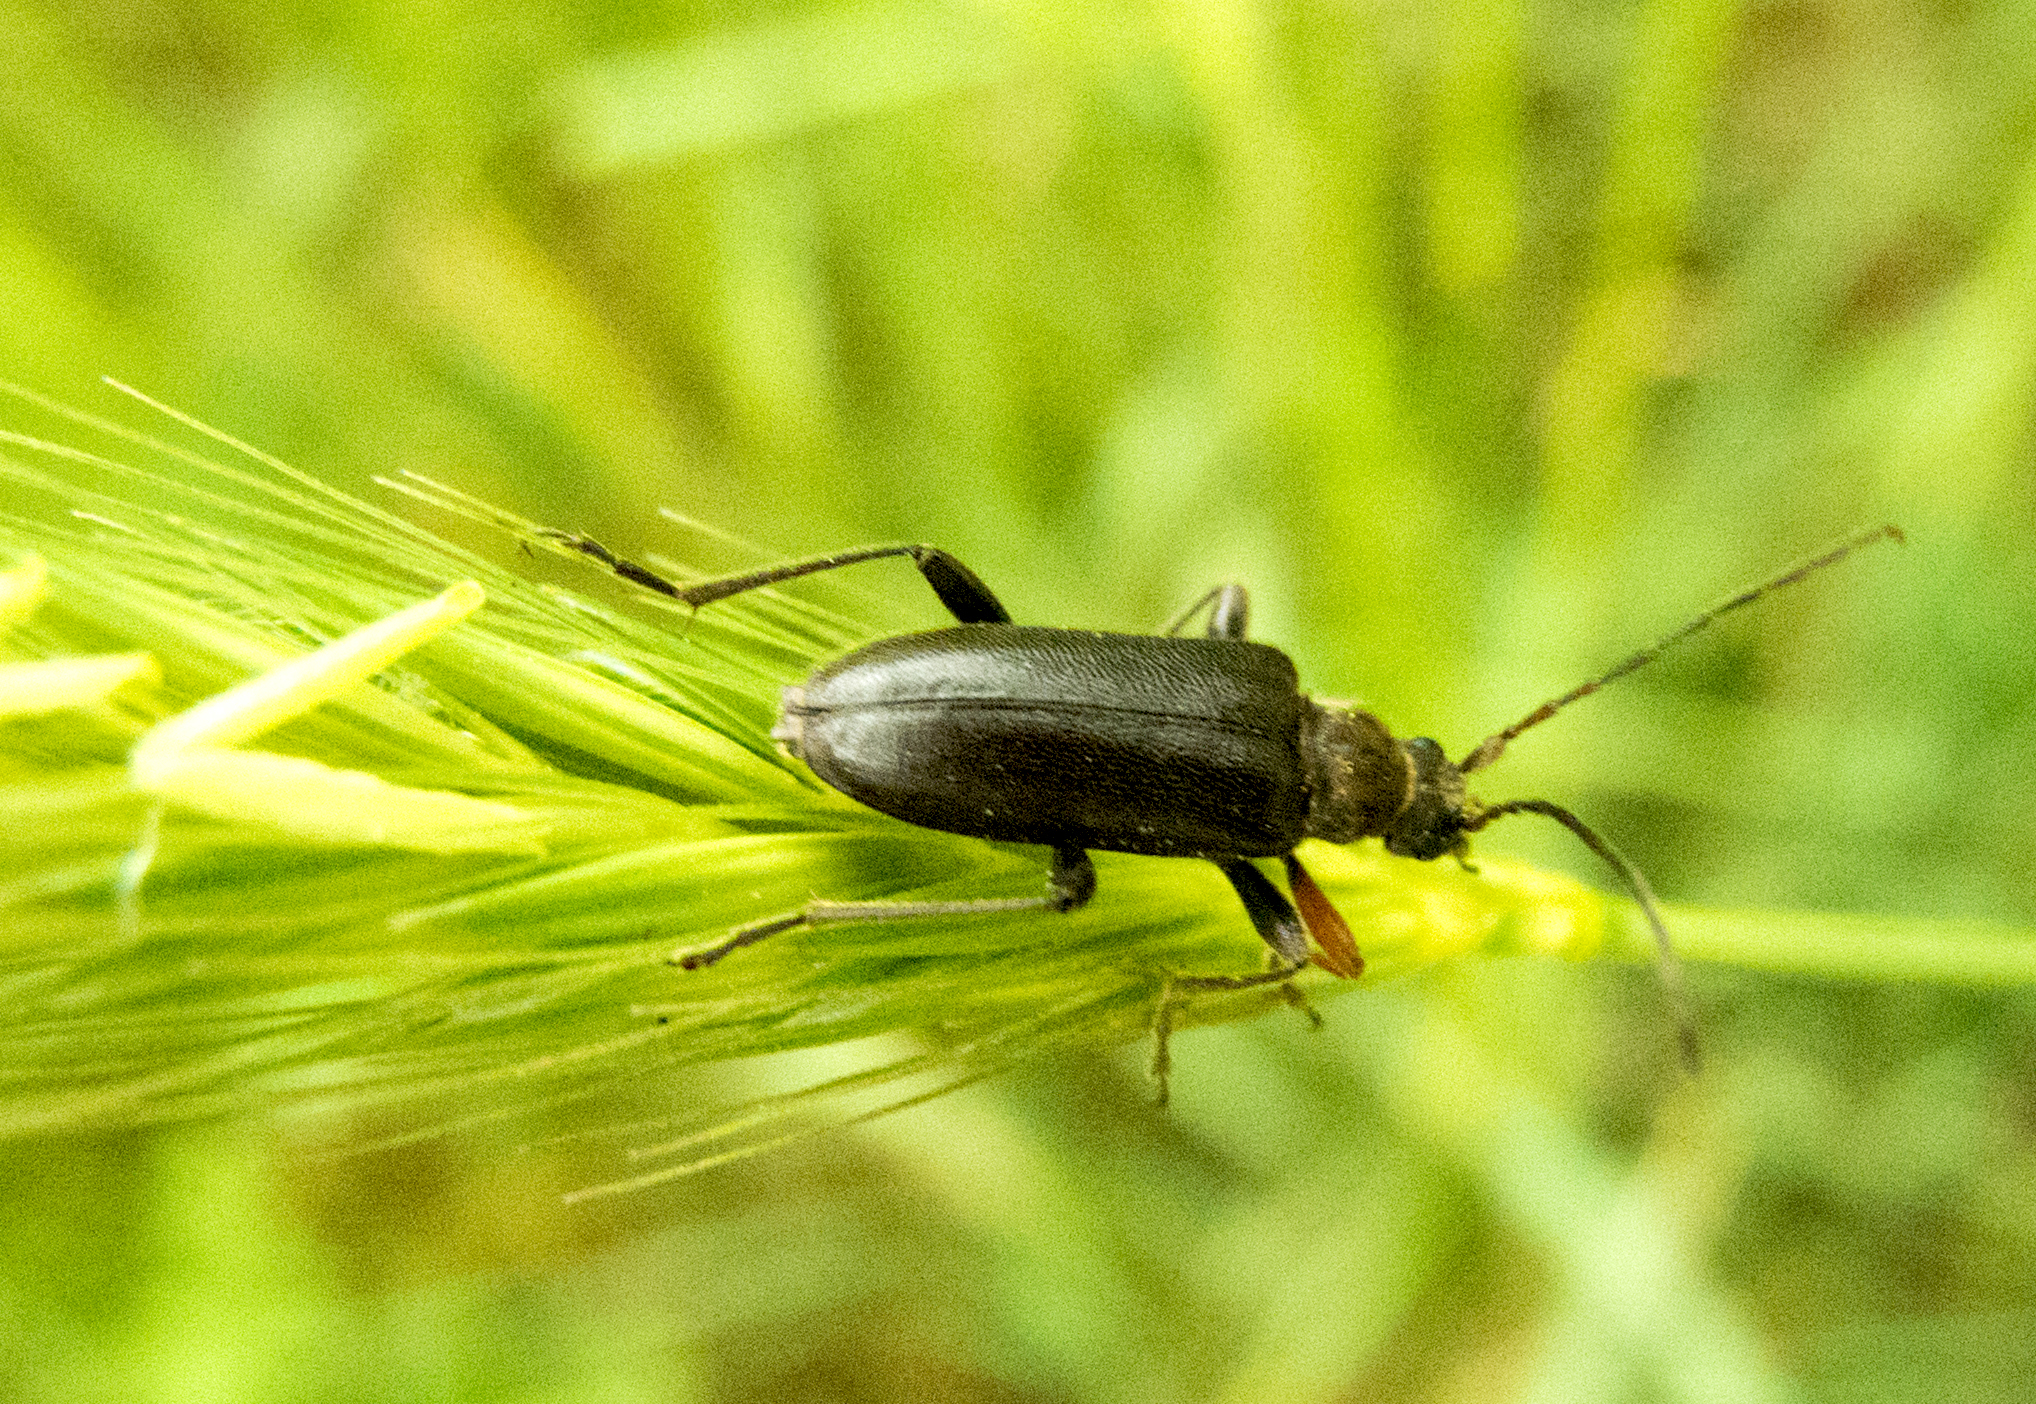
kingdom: Animalia
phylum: Arthropoda
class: Insecta
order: Coleoptera
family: Cerambycidae
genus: Cortodera
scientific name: Cortodera flavimana
